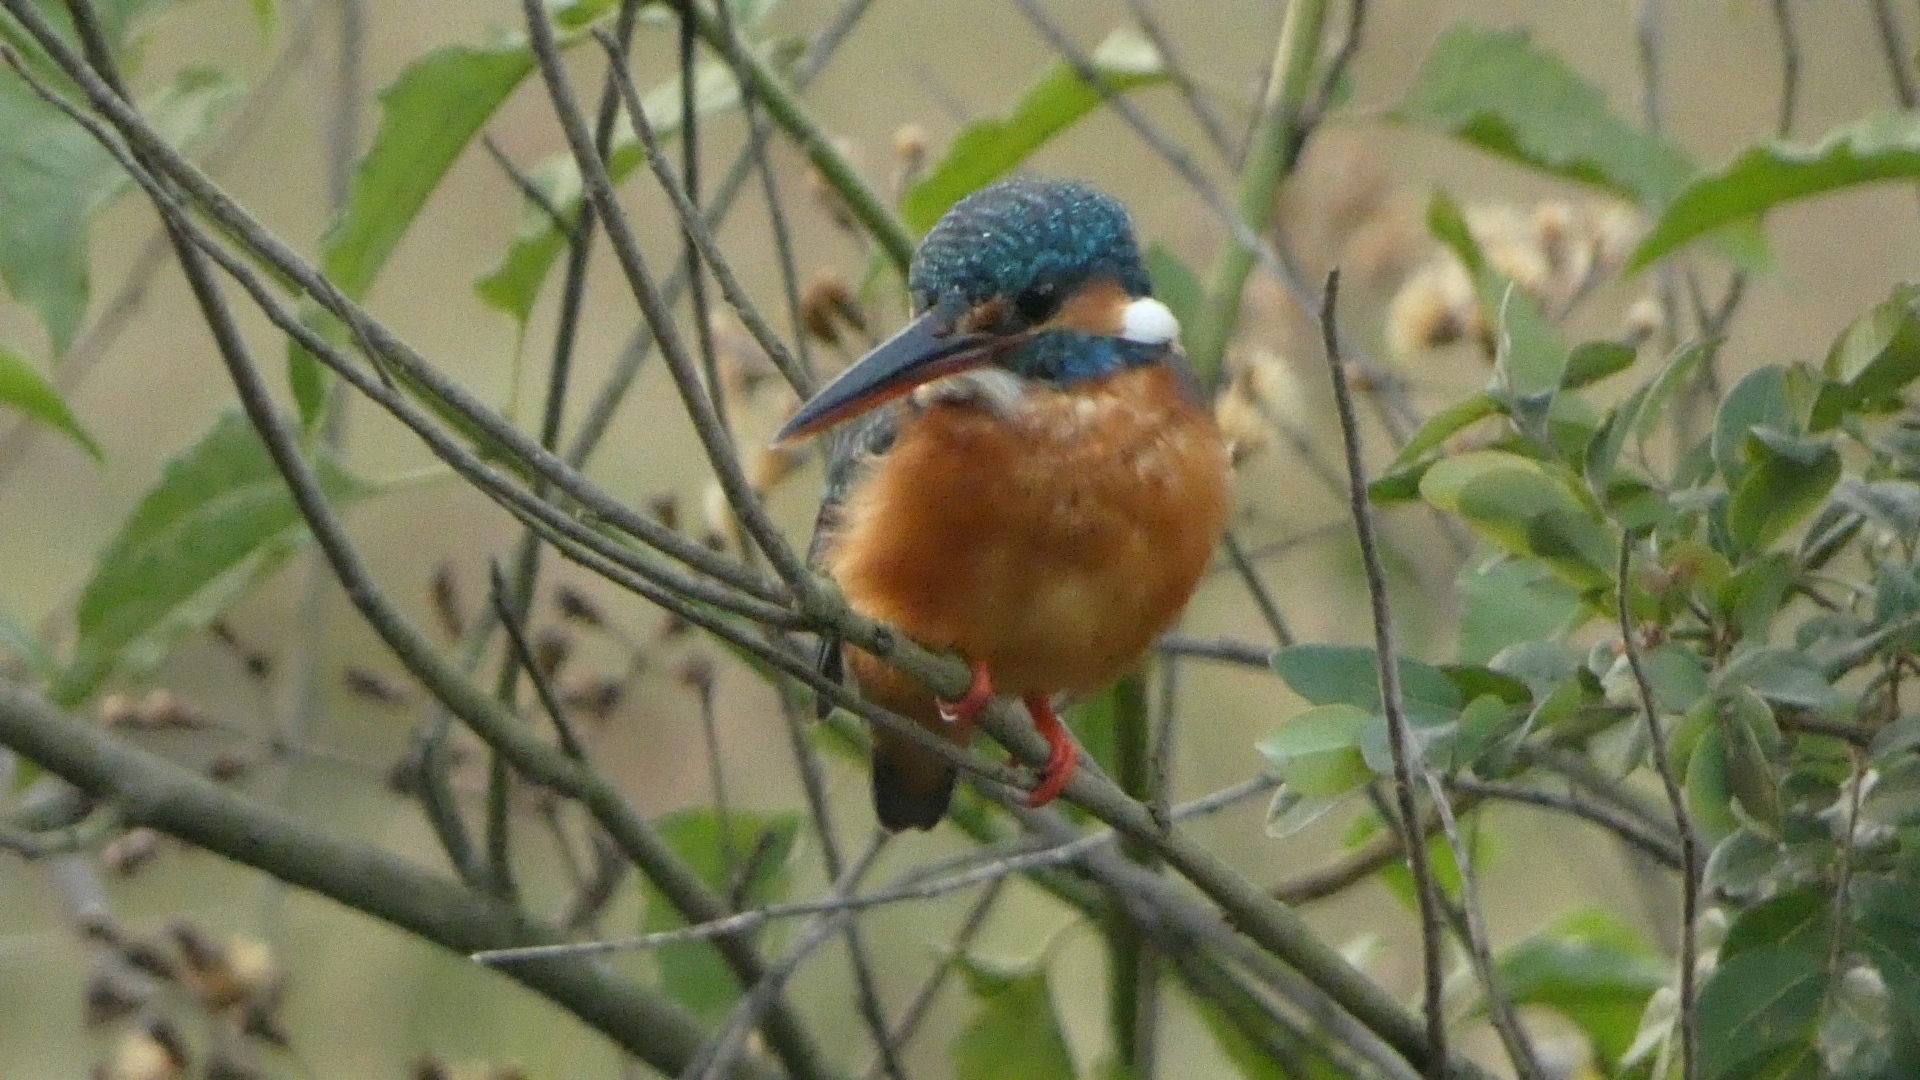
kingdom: Animalia
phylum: Chordata
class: Aves
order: Coraciiformes
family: Alcedinidae
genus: Alcedo
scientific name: Alcedo atthis
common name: Common kingfisher
